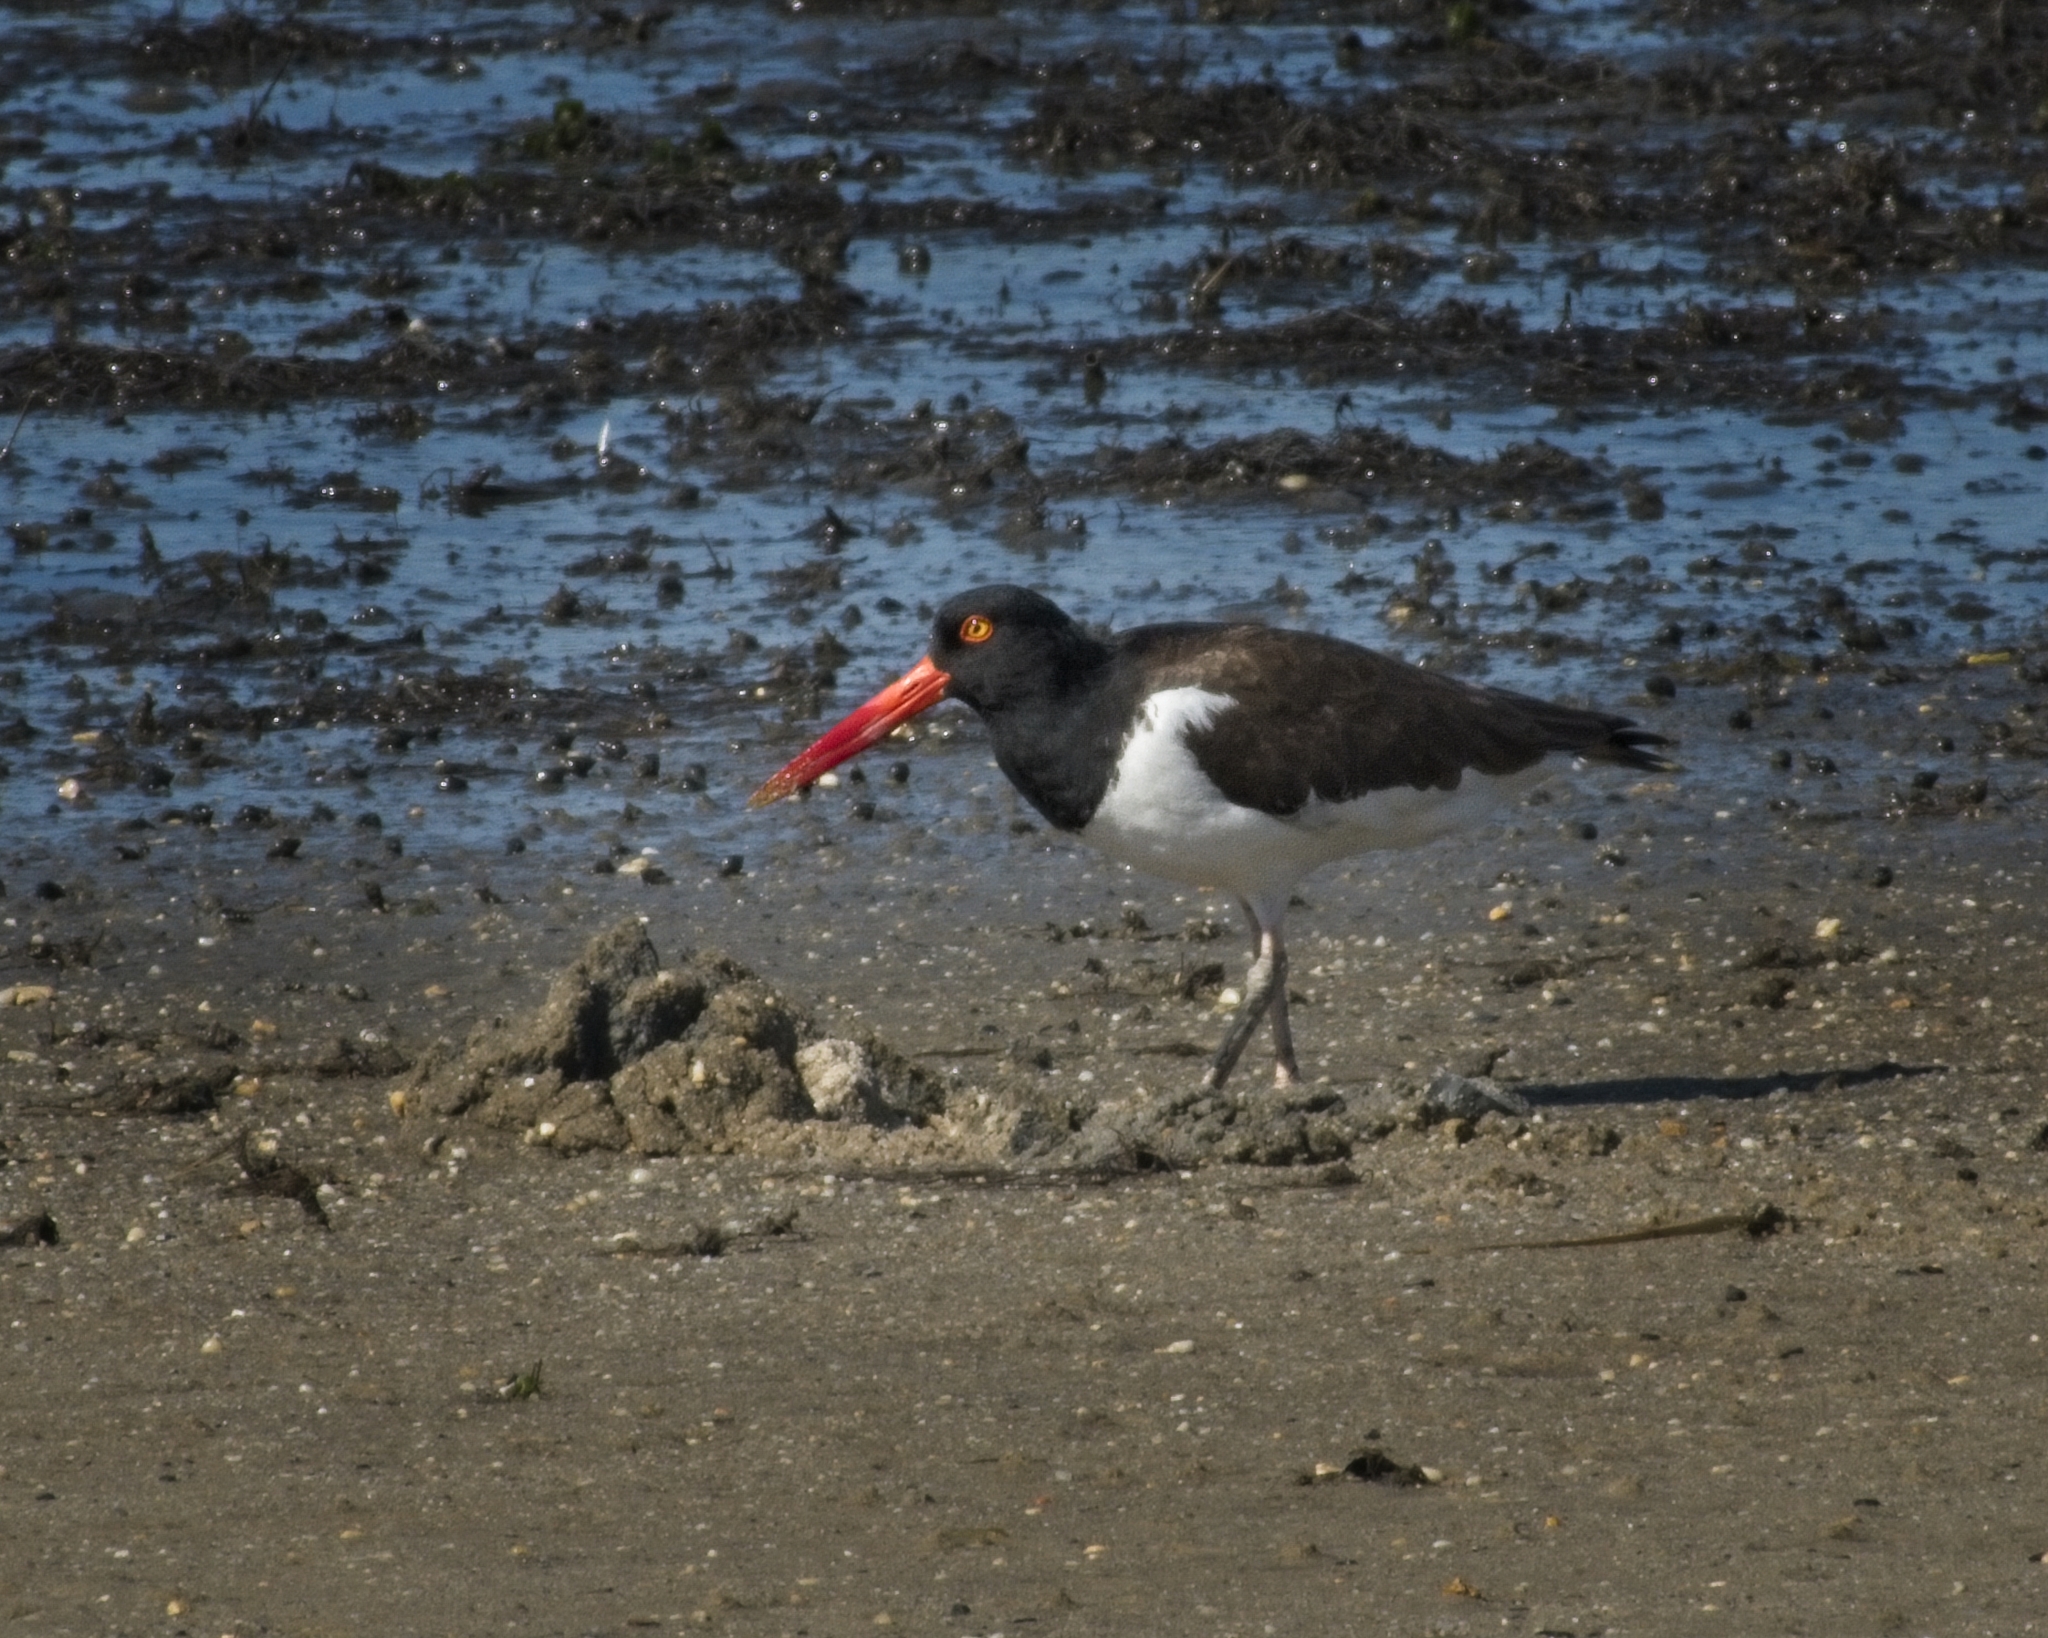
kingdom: Animalia
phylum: Chordata
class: Aves
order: Charadriiformes
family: Haematopodidae
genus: Haematopus
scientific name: Haematopus palliatus
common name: American oystercatcher
